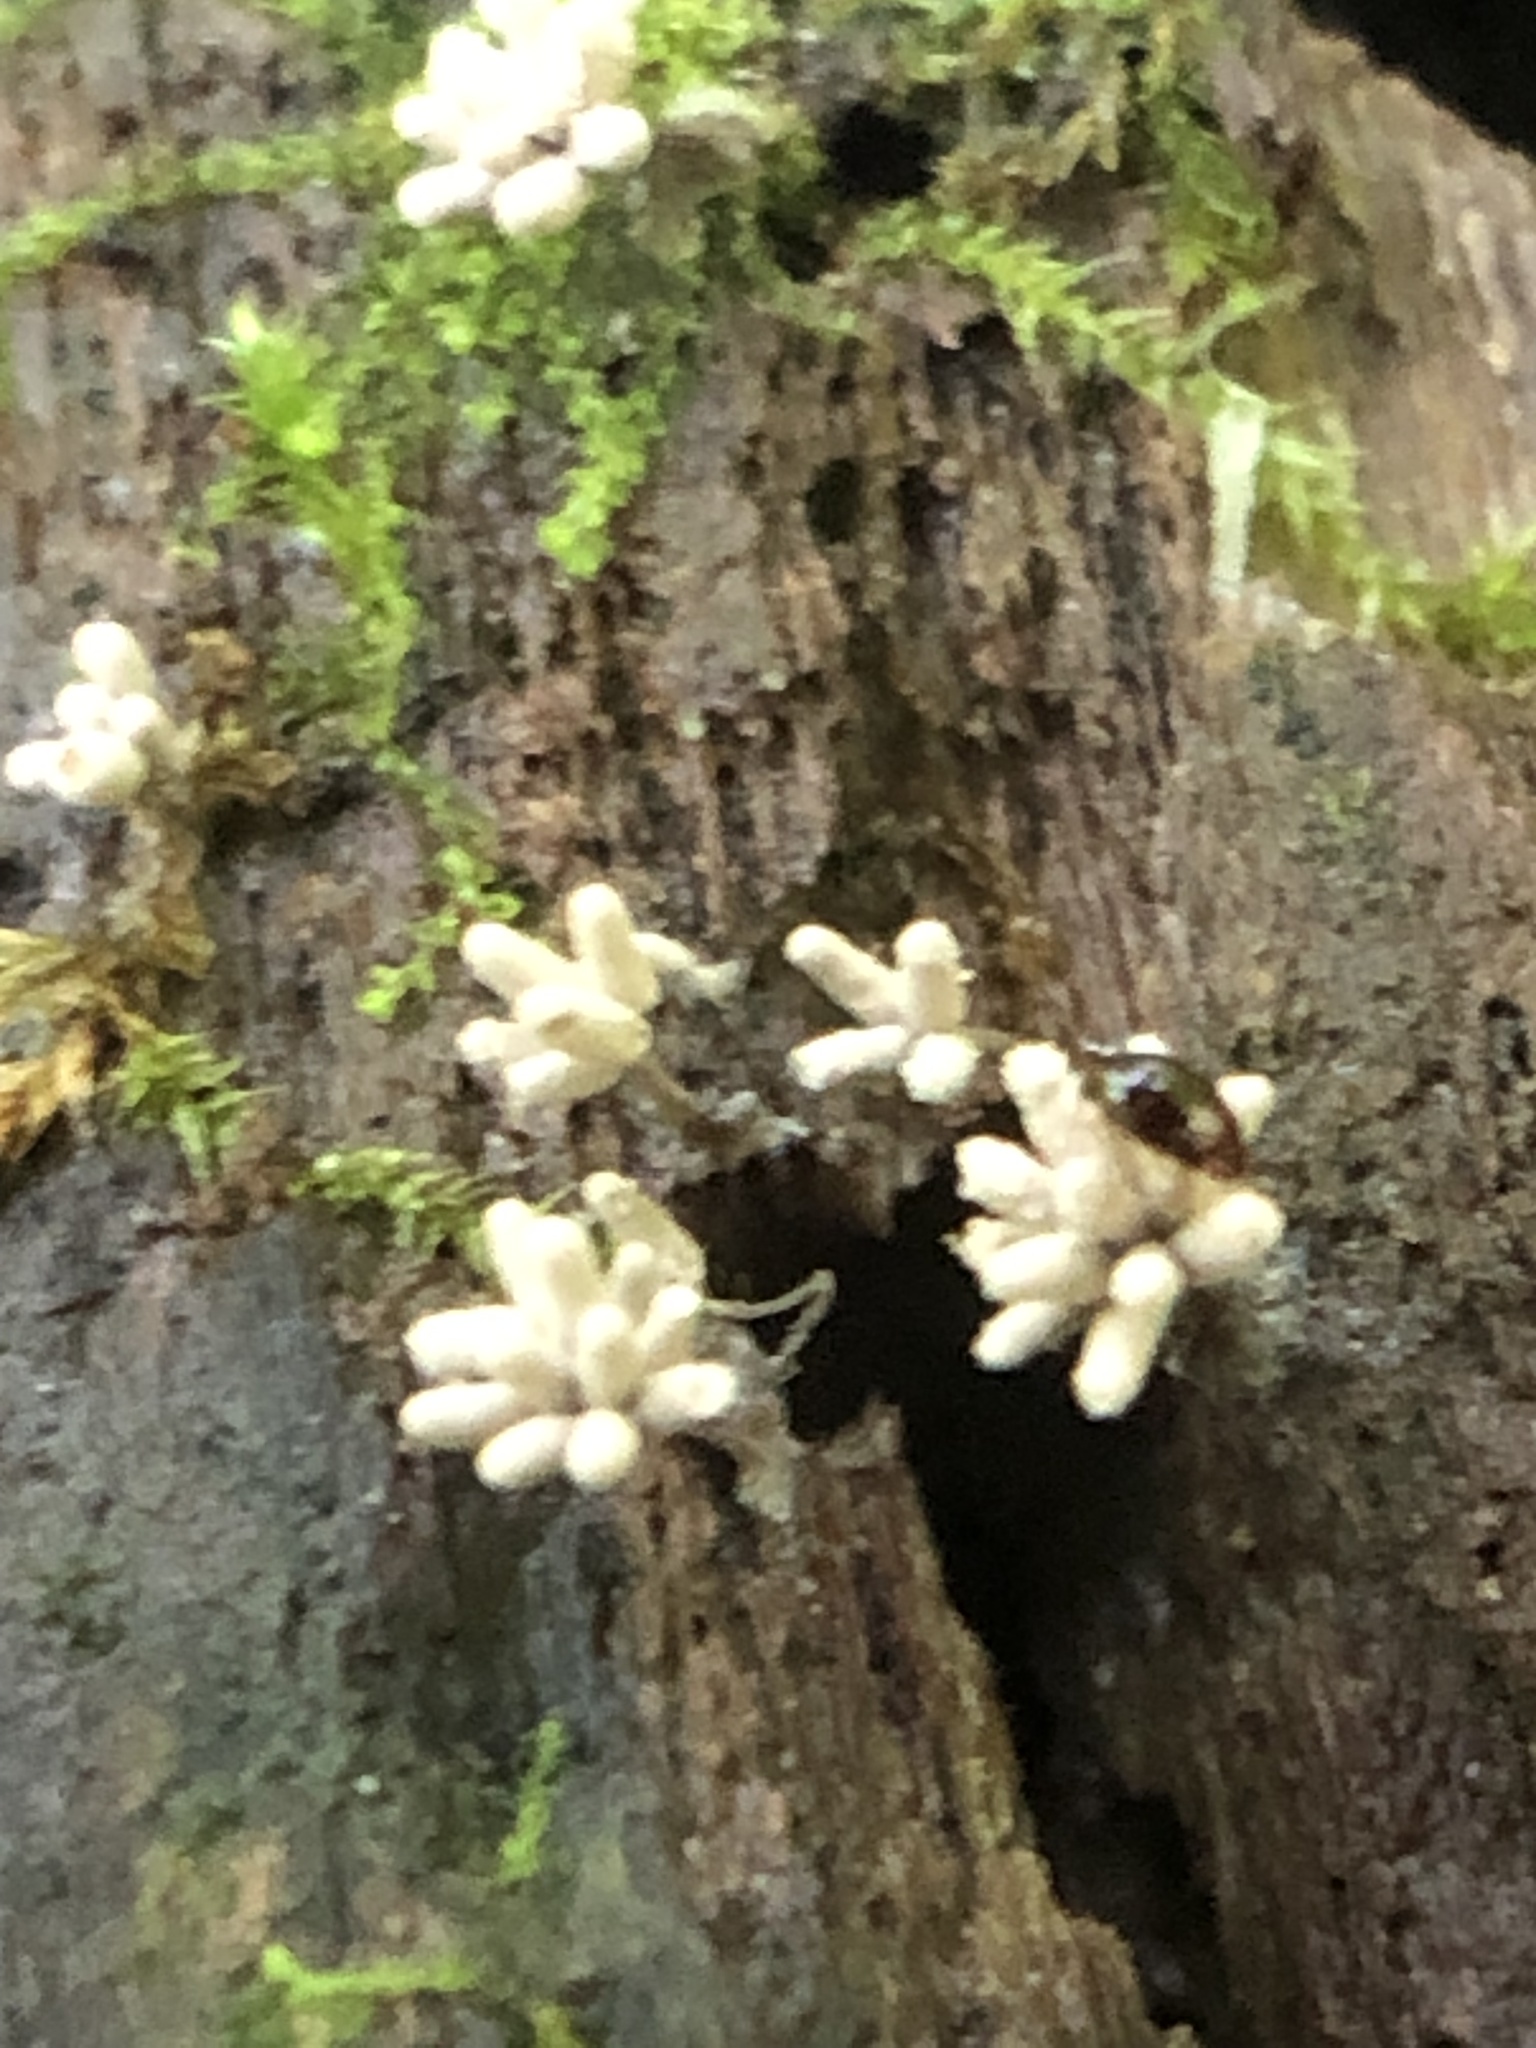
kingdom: Protozoa
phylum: Mycetozoa
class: Myxomycetes
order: Trichiales
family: Arcyriaceae
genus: Arcyria
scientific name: Arcyria cinerea
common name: White carnival candy slime mold
